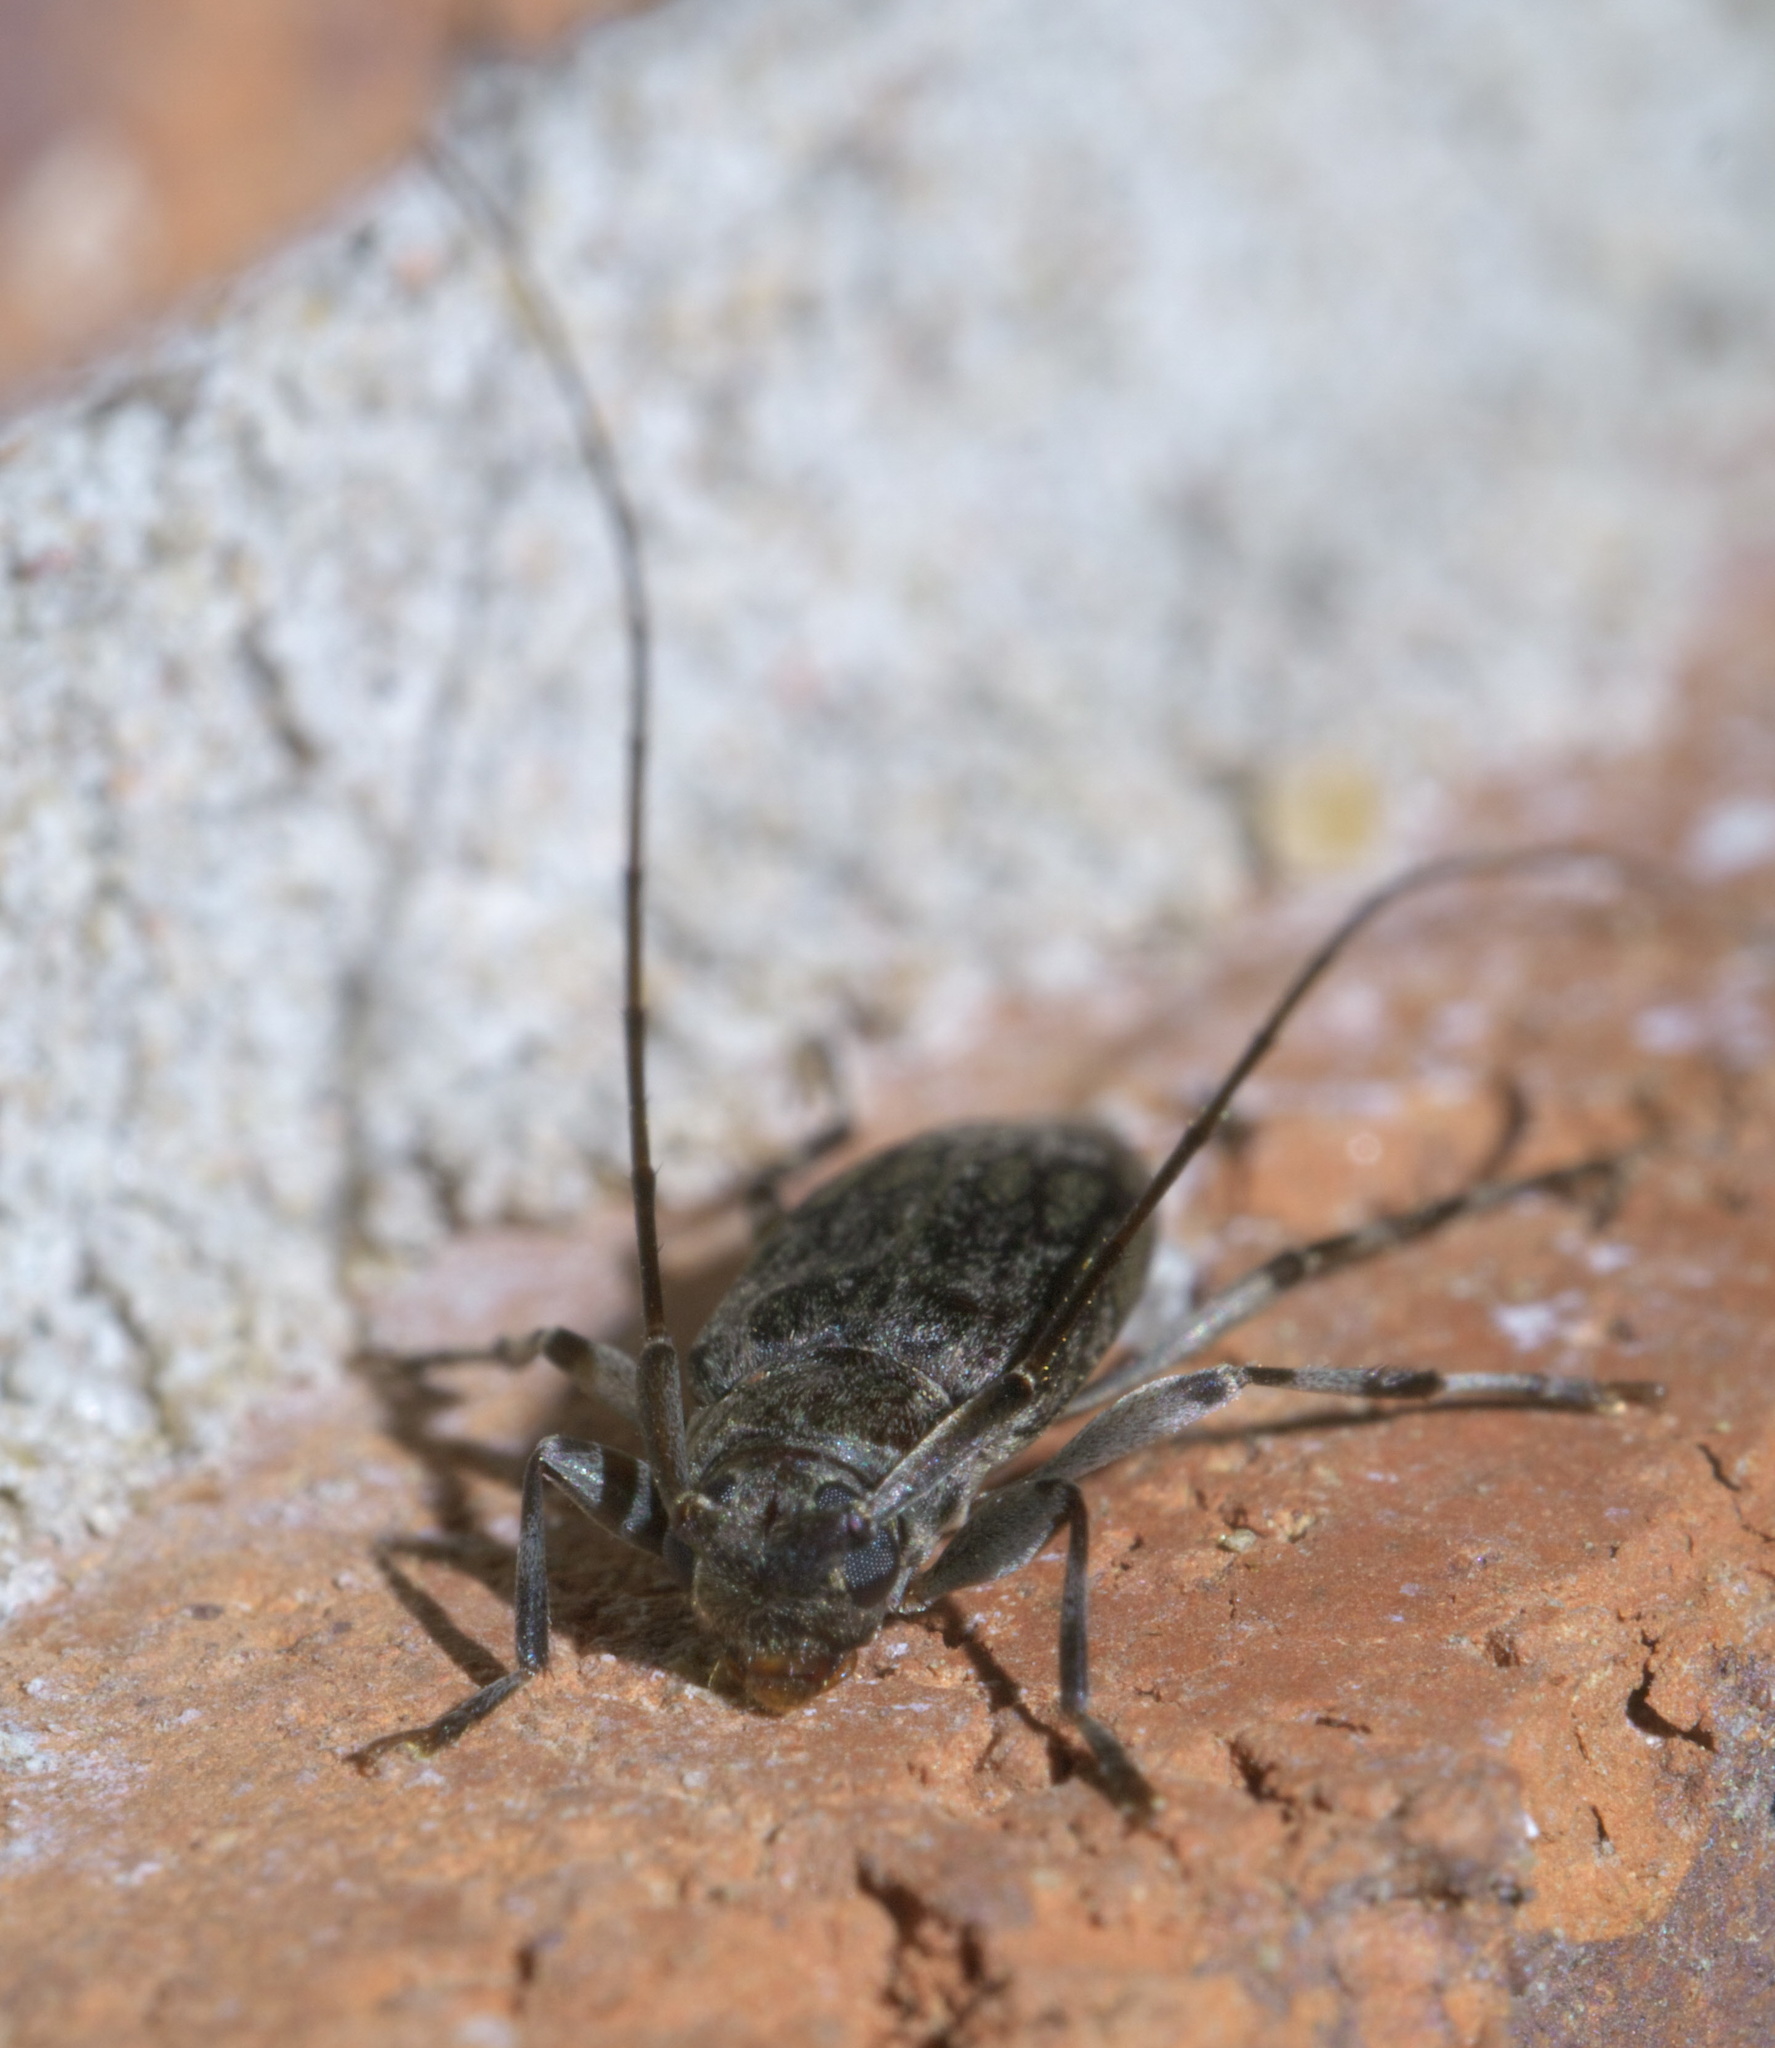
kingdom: Animalia
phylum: Arthropoda
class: Insecta
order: Coleoptera
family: Cerambycidae
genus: Lepturges
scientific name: Lepturges confluens
